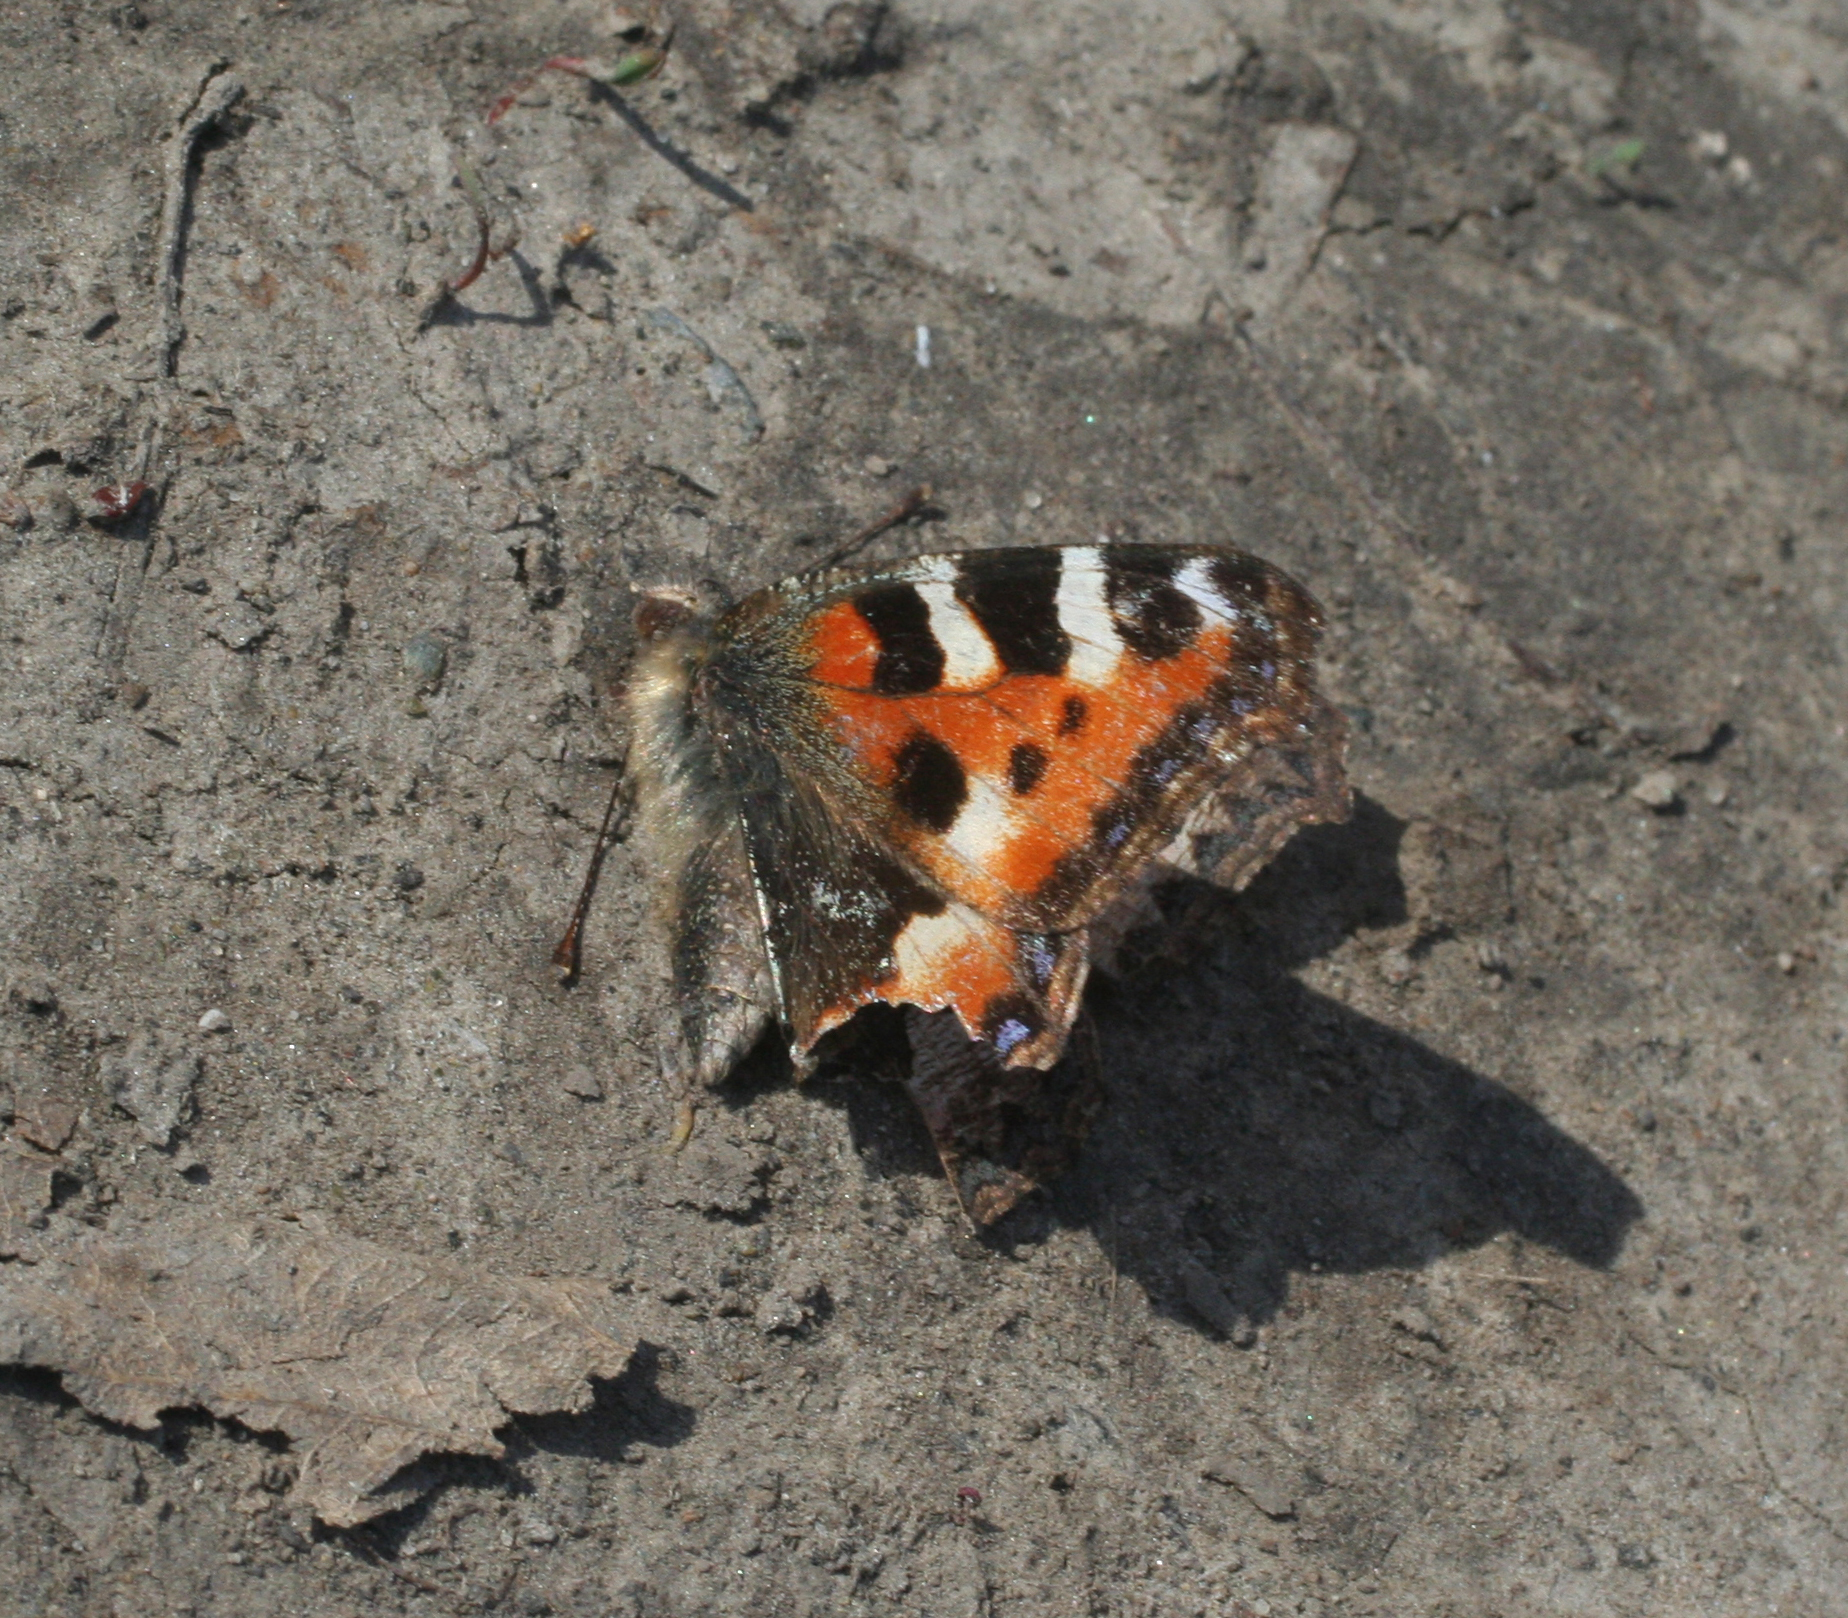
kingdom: Animalia
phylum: Arthropoda
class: Insecta
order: Lepidoptera
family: Nymphalidae
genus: Aglais
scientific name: Aglais urticae
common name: Small tortoiseshell
